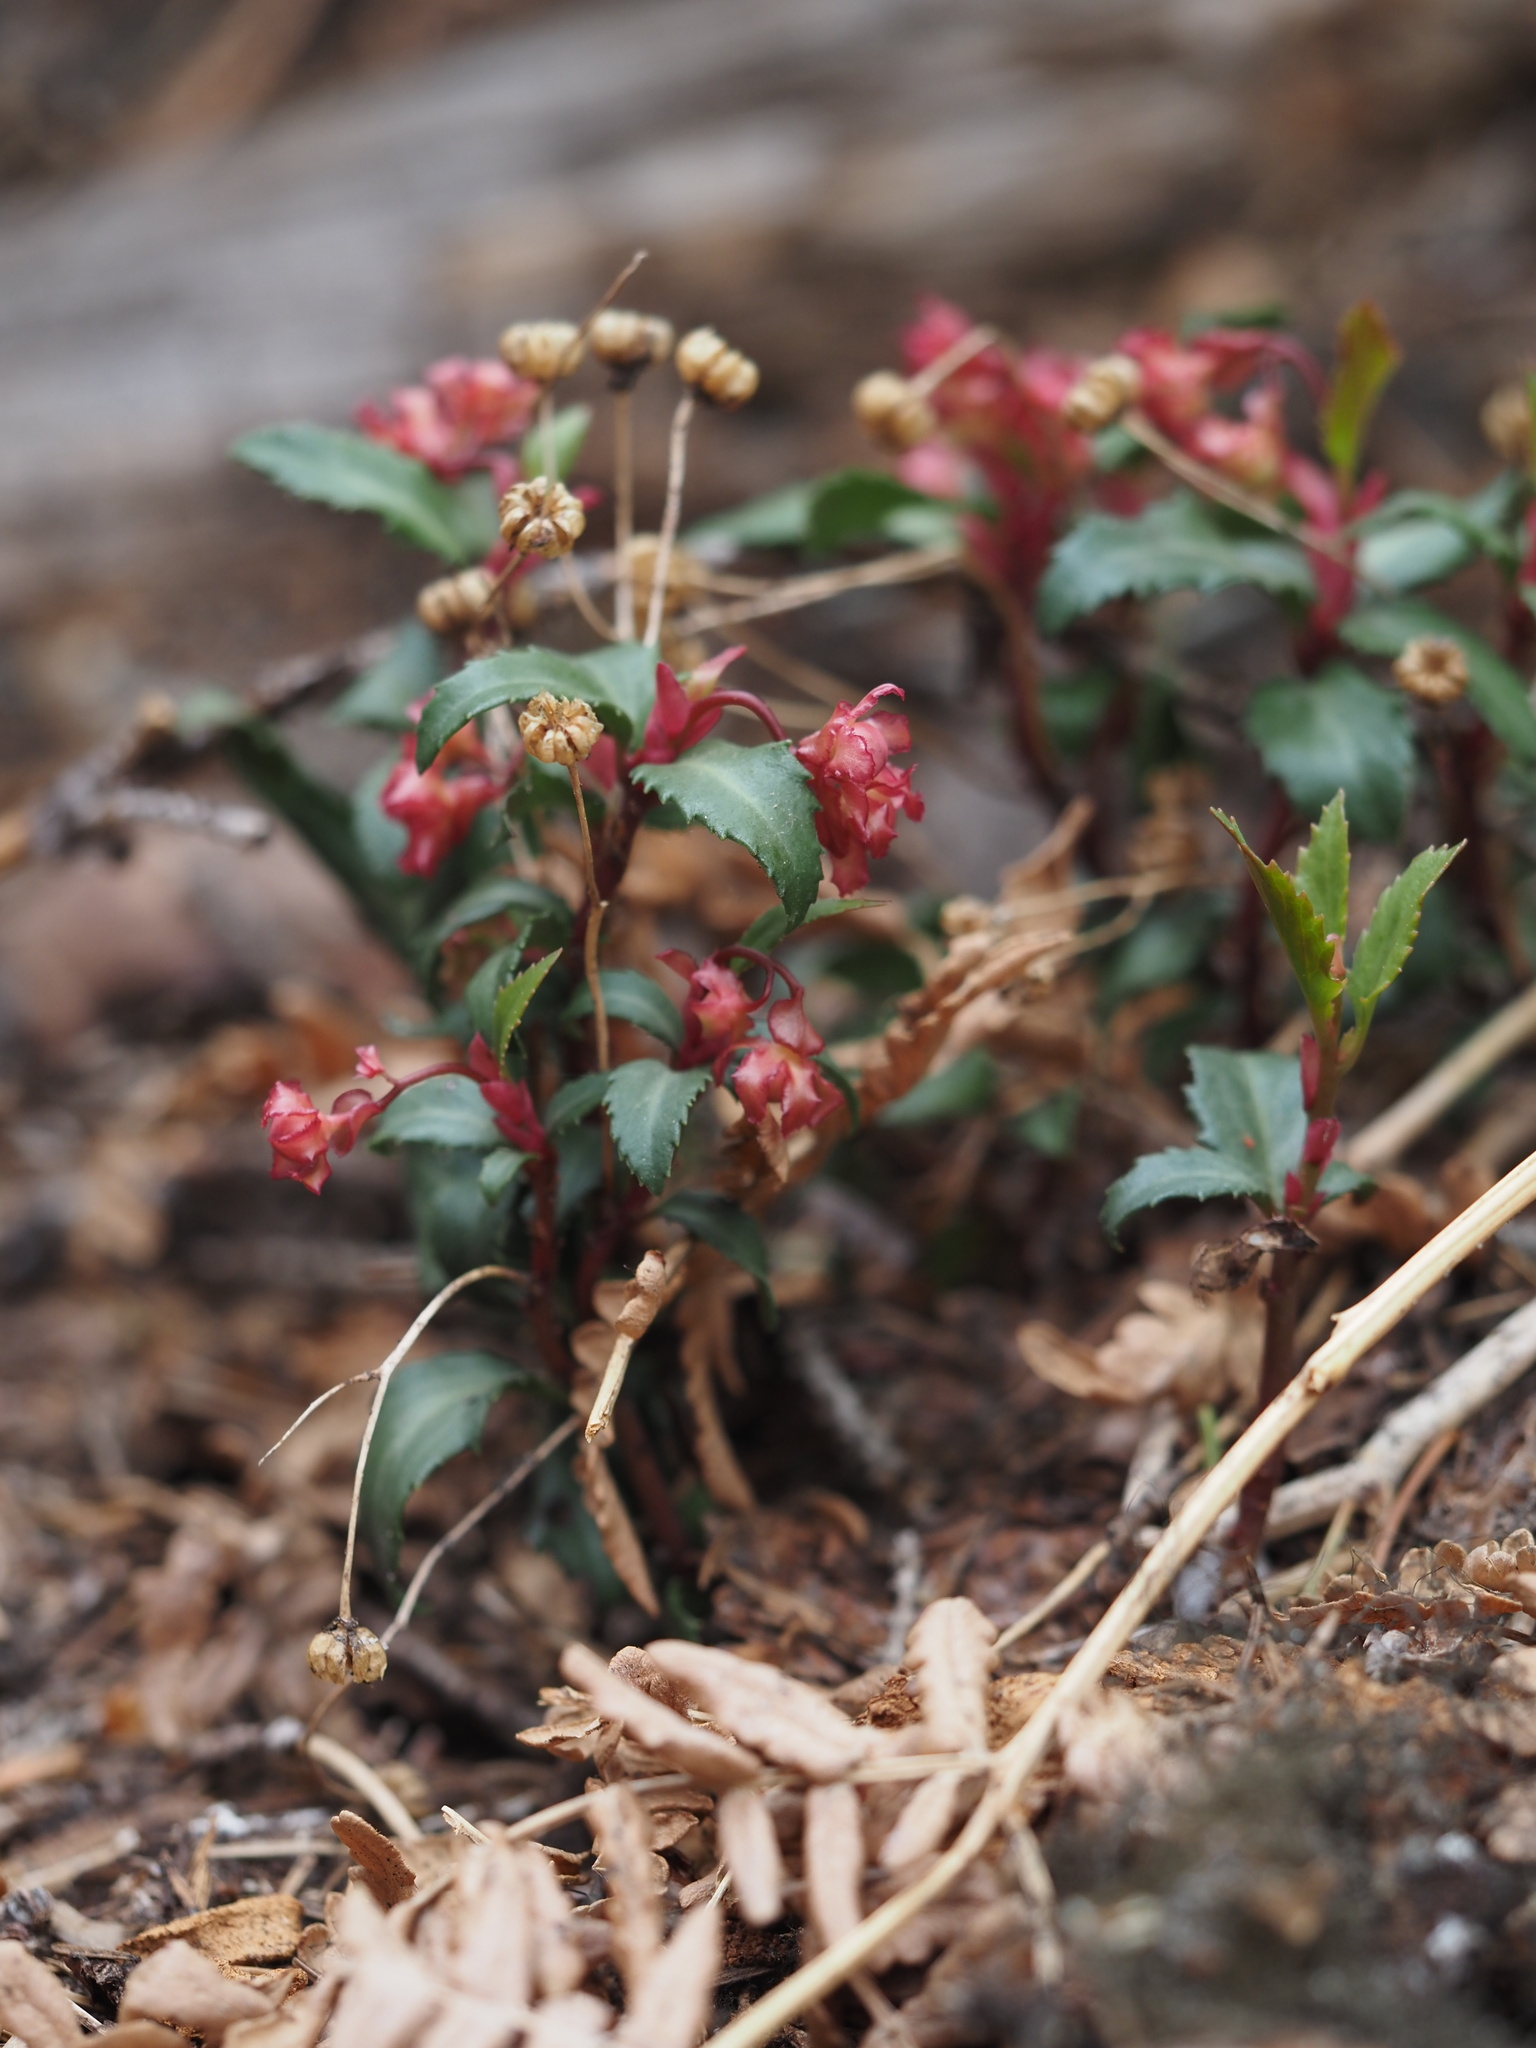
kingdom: Plantae
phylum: Tracheophyta
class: Magnoliopsida
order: Ericales
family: Ericaceae
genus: Chimaphila
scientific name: Chimaphila menziesii
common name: Menzies' pipsissewa
